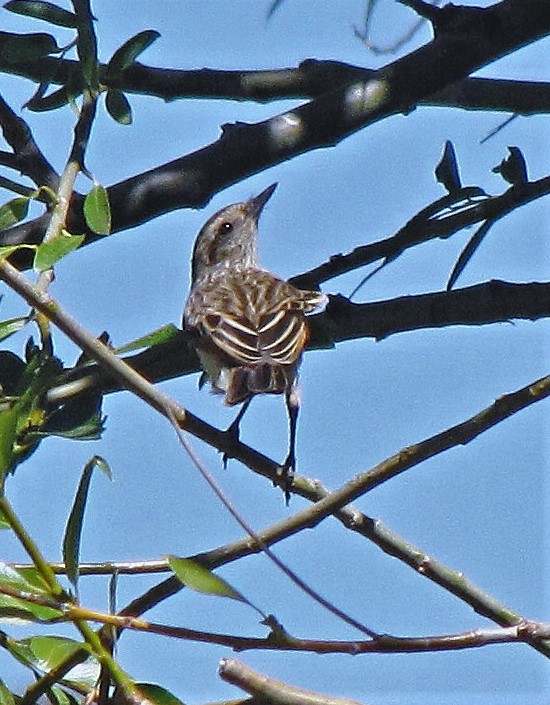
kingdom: Animalia
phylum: Chordata
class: Aves
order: Passeriformes
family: Tyrannidae
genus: Hymenops
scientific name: Hymenops perspicillatus
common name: Spectacled tyrant
